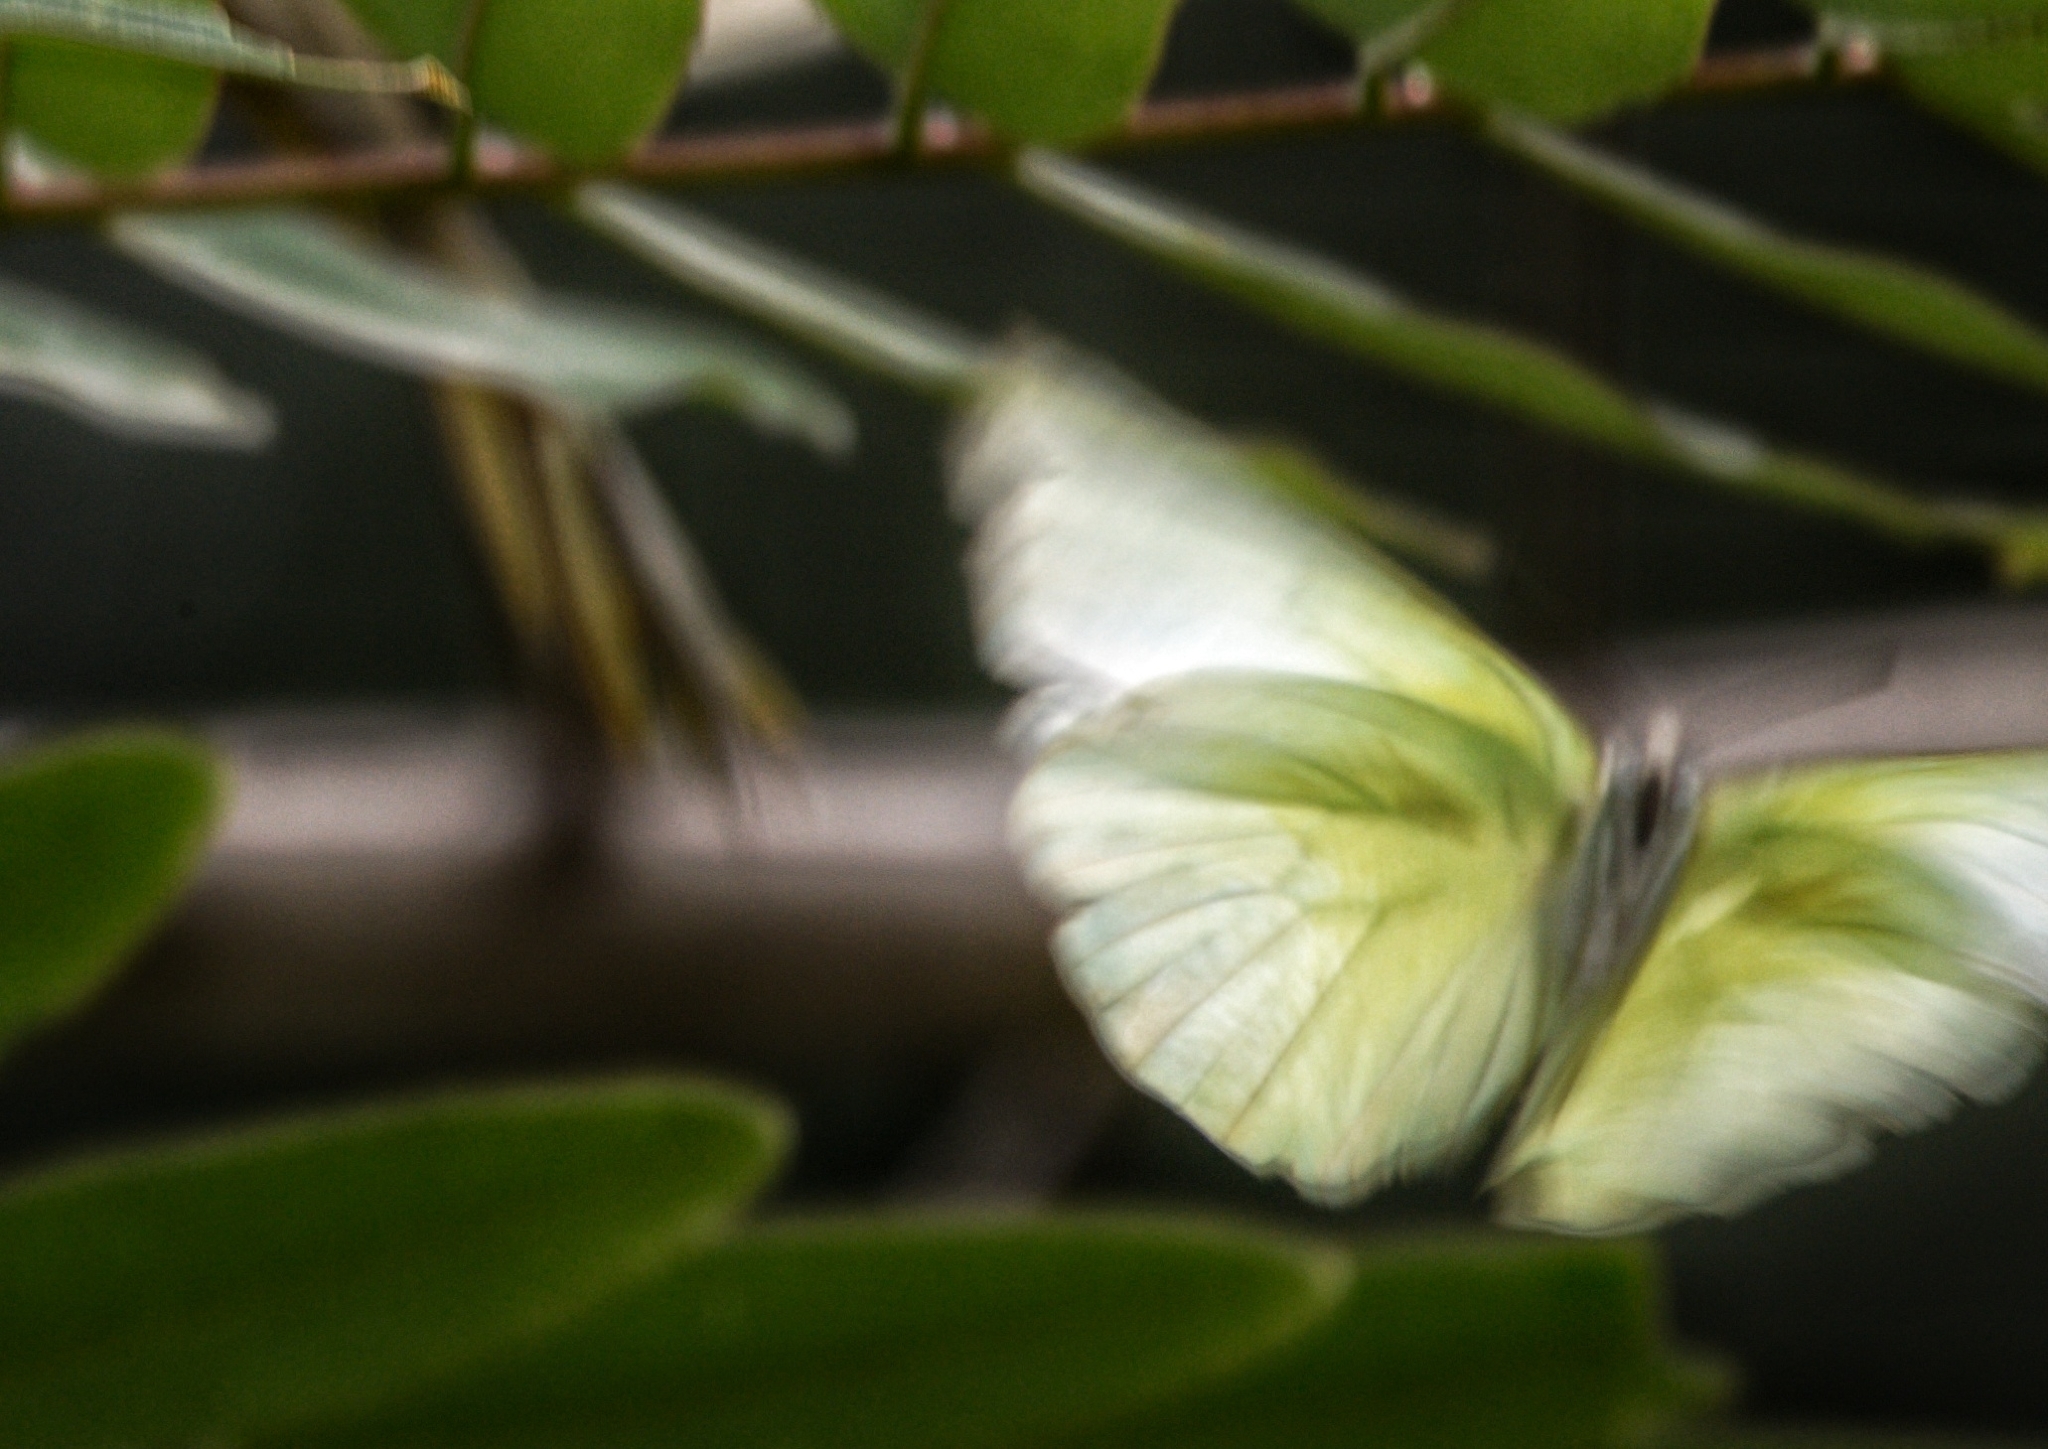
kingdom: Animalia
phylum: Arthropoda
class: Insecta
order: Lepidoptera
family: Pieridae
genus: Catopsilia
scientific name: Catopsilia pomona
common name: Common emigrant
